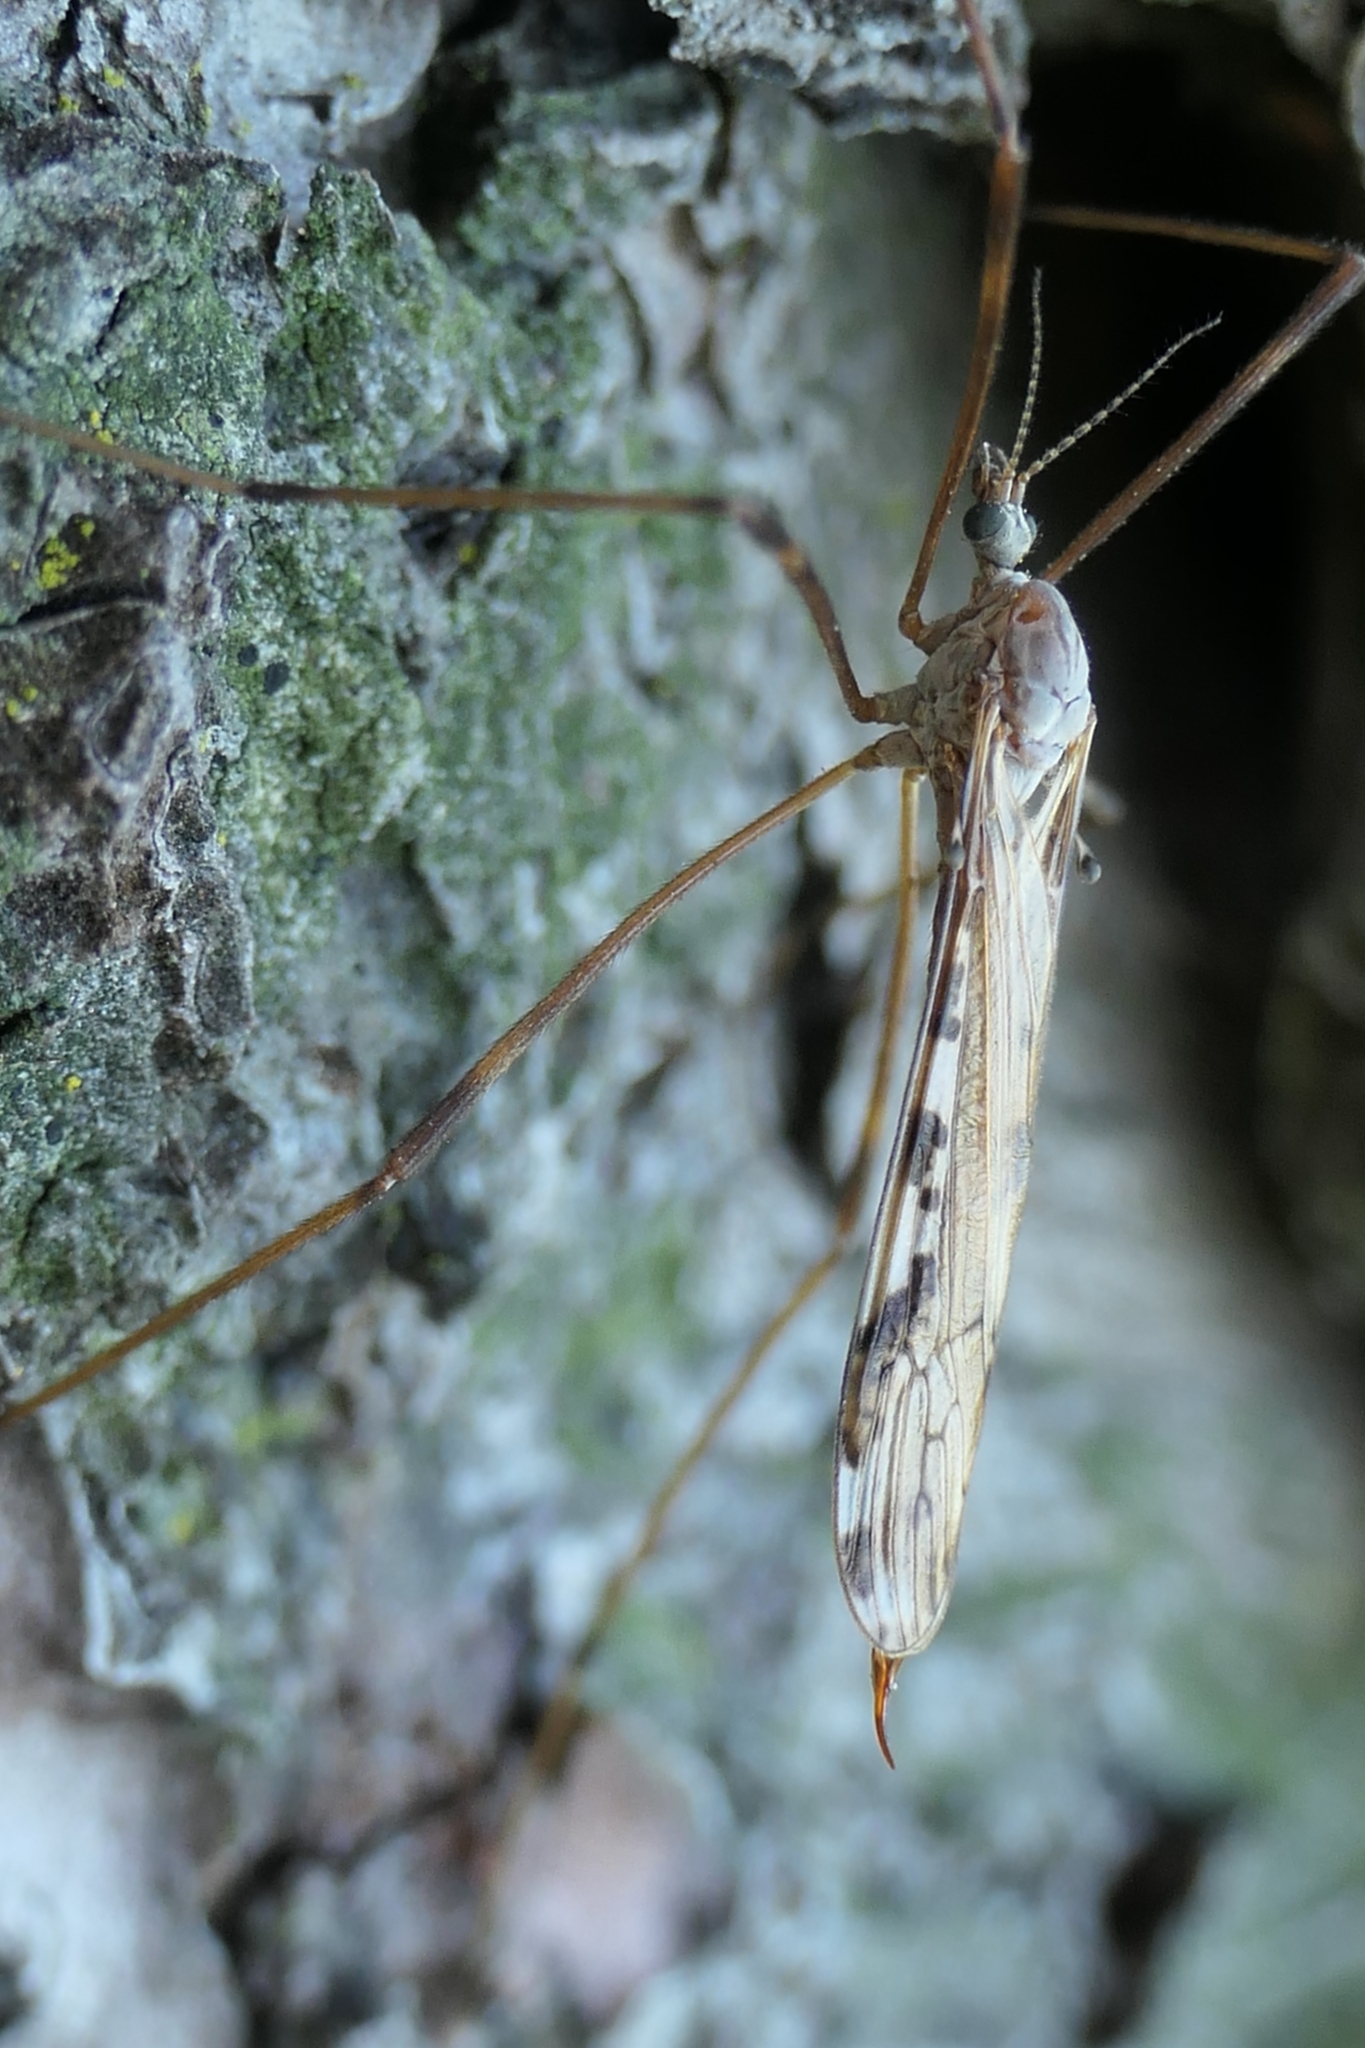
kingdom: Animalia
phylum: Arthropoda
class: Insecta
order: Diptera
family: Limoniidae
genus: Paralimnophila
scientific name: Paralimnophila skusei
